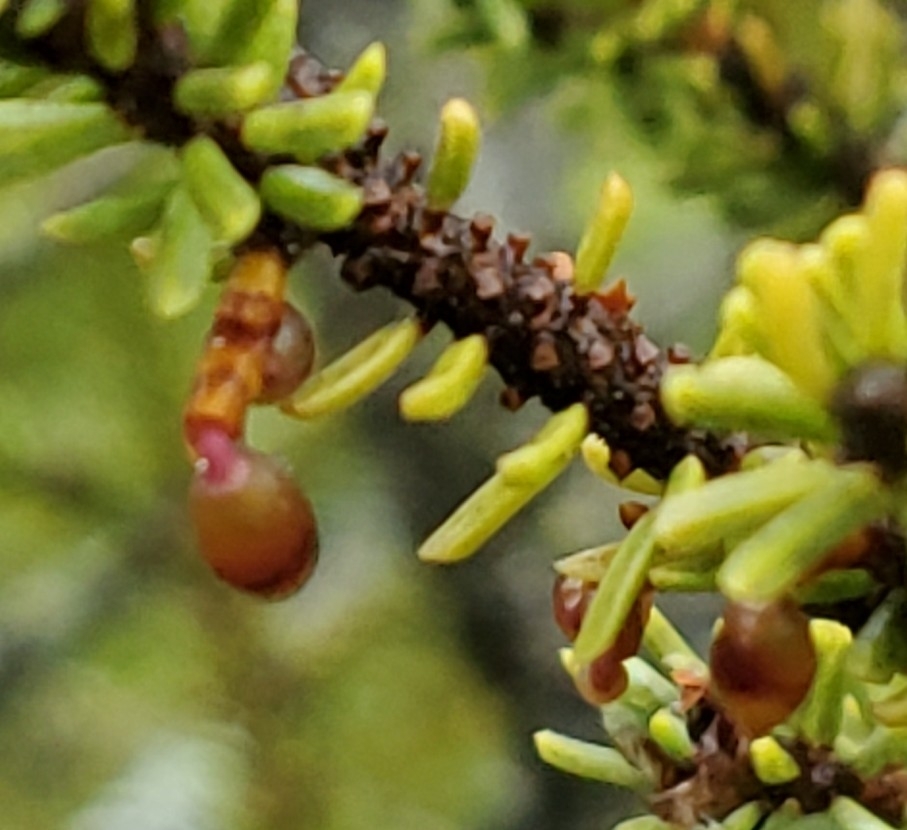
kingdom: Plantae
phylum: Tracheophyta
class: Magnoliopsida
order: Santalales
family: Viscaceae
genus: Arceuthobium
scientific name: Arceuthobium pusillum
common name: Dwarf-mistletoe
